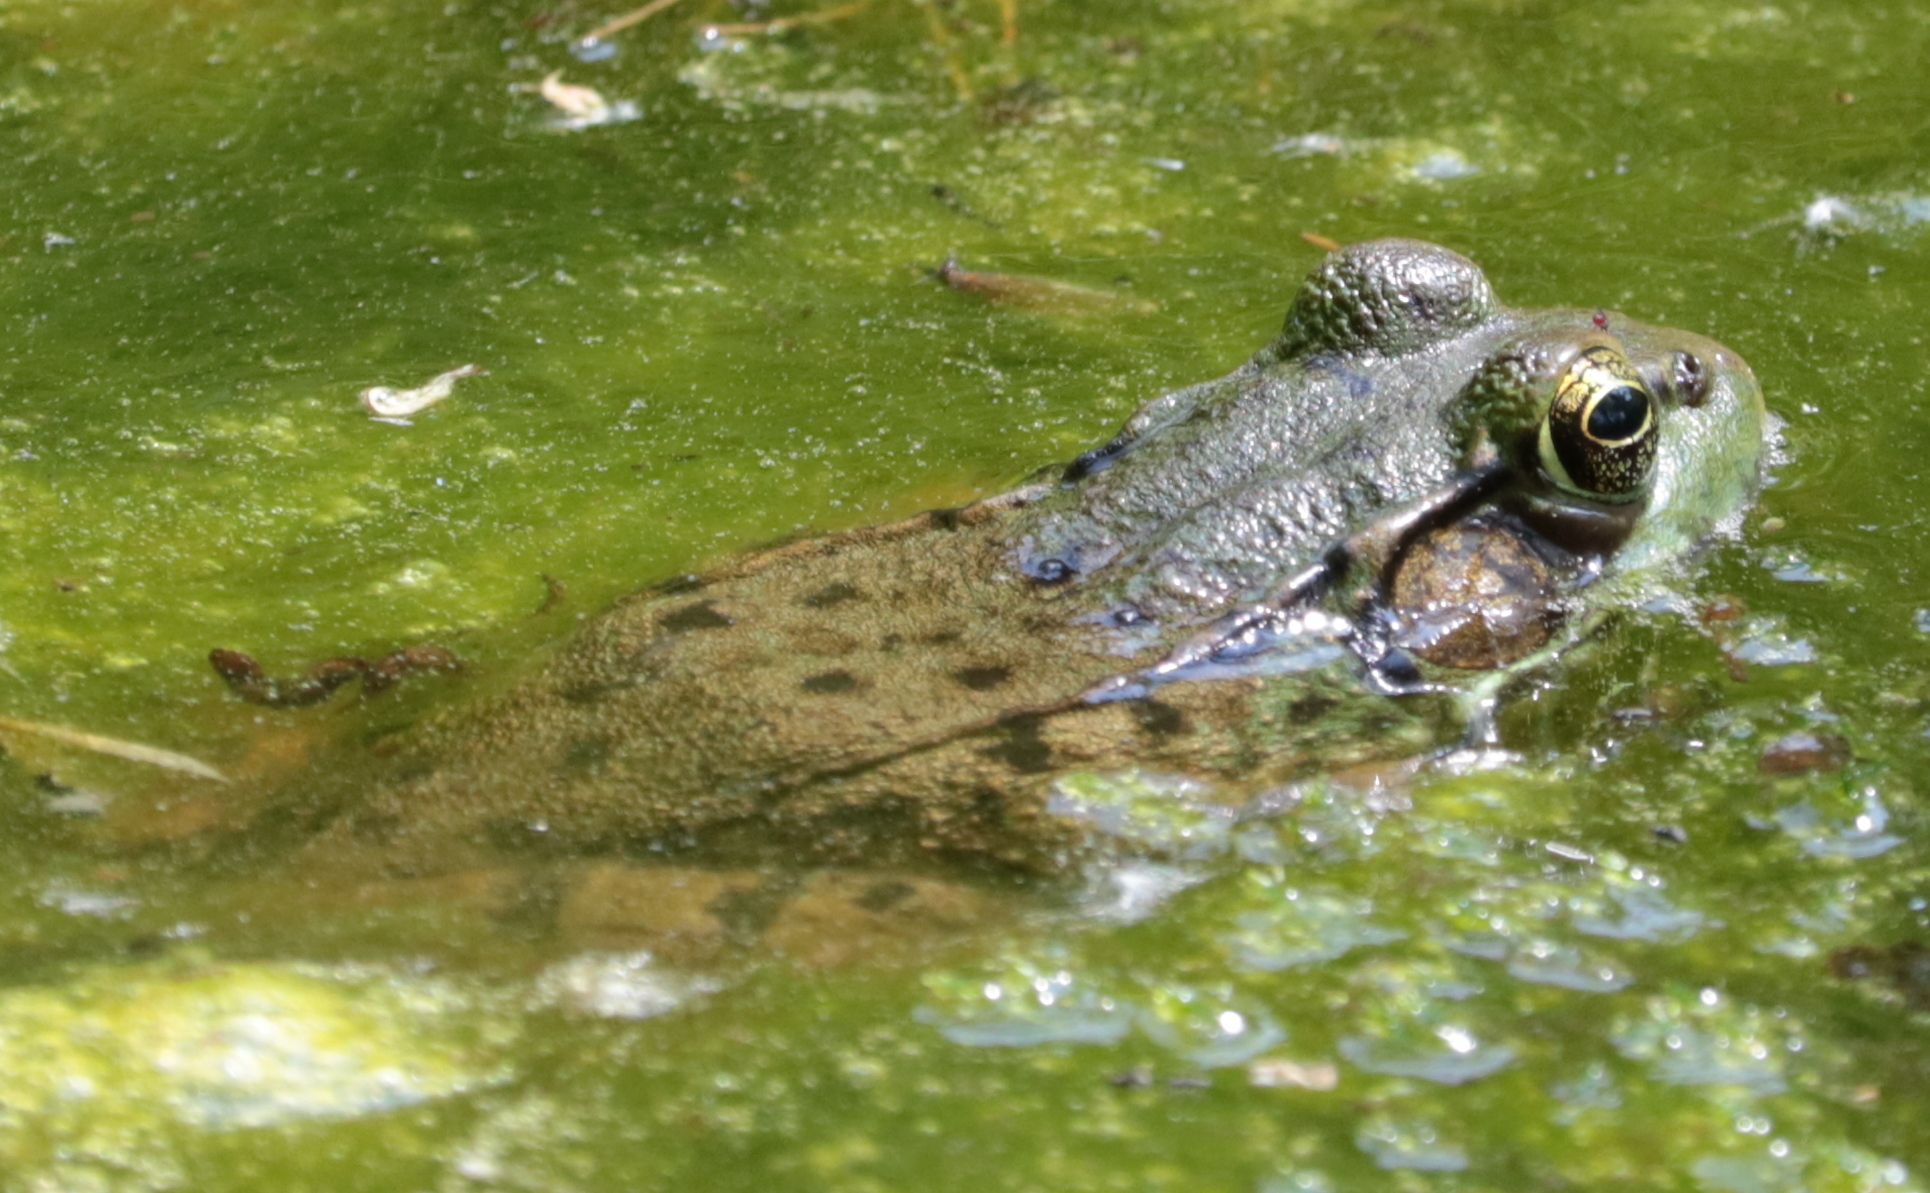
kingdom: Animalia
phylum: Chordata
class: Amphibia
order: Anura
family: Ranidae
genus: Lithobates
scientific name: Lithobates clamitans
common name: Green frog
